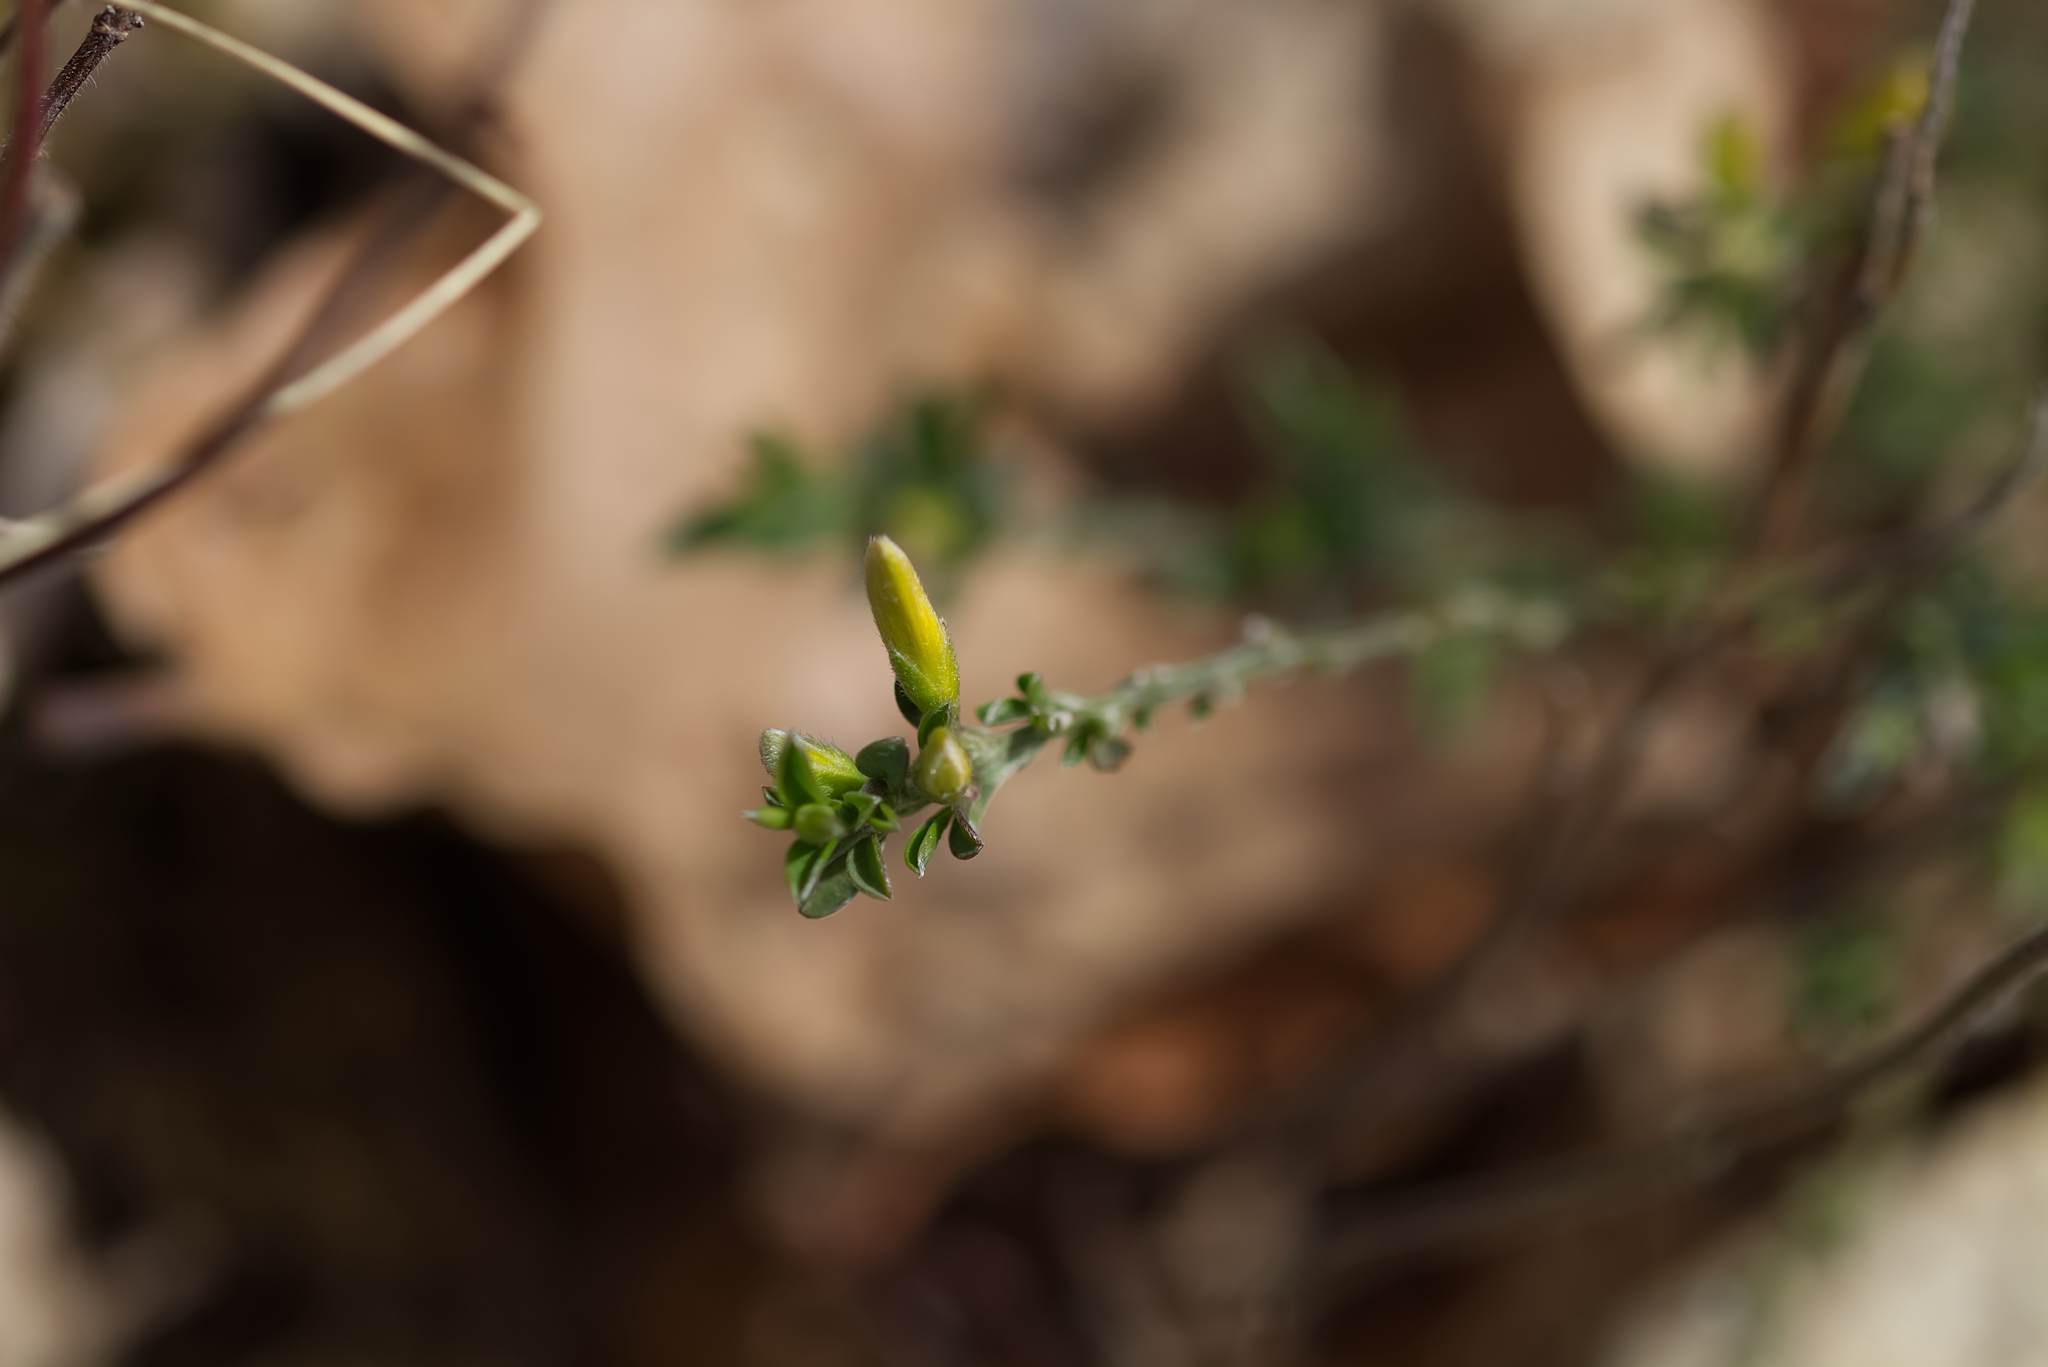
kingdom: Plantae
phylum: Tracheophyta
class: Magnoliopsida
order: Fabales
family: Fabaceae
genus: Genista
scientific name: Genista pilosa
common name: Hairy greenweed
